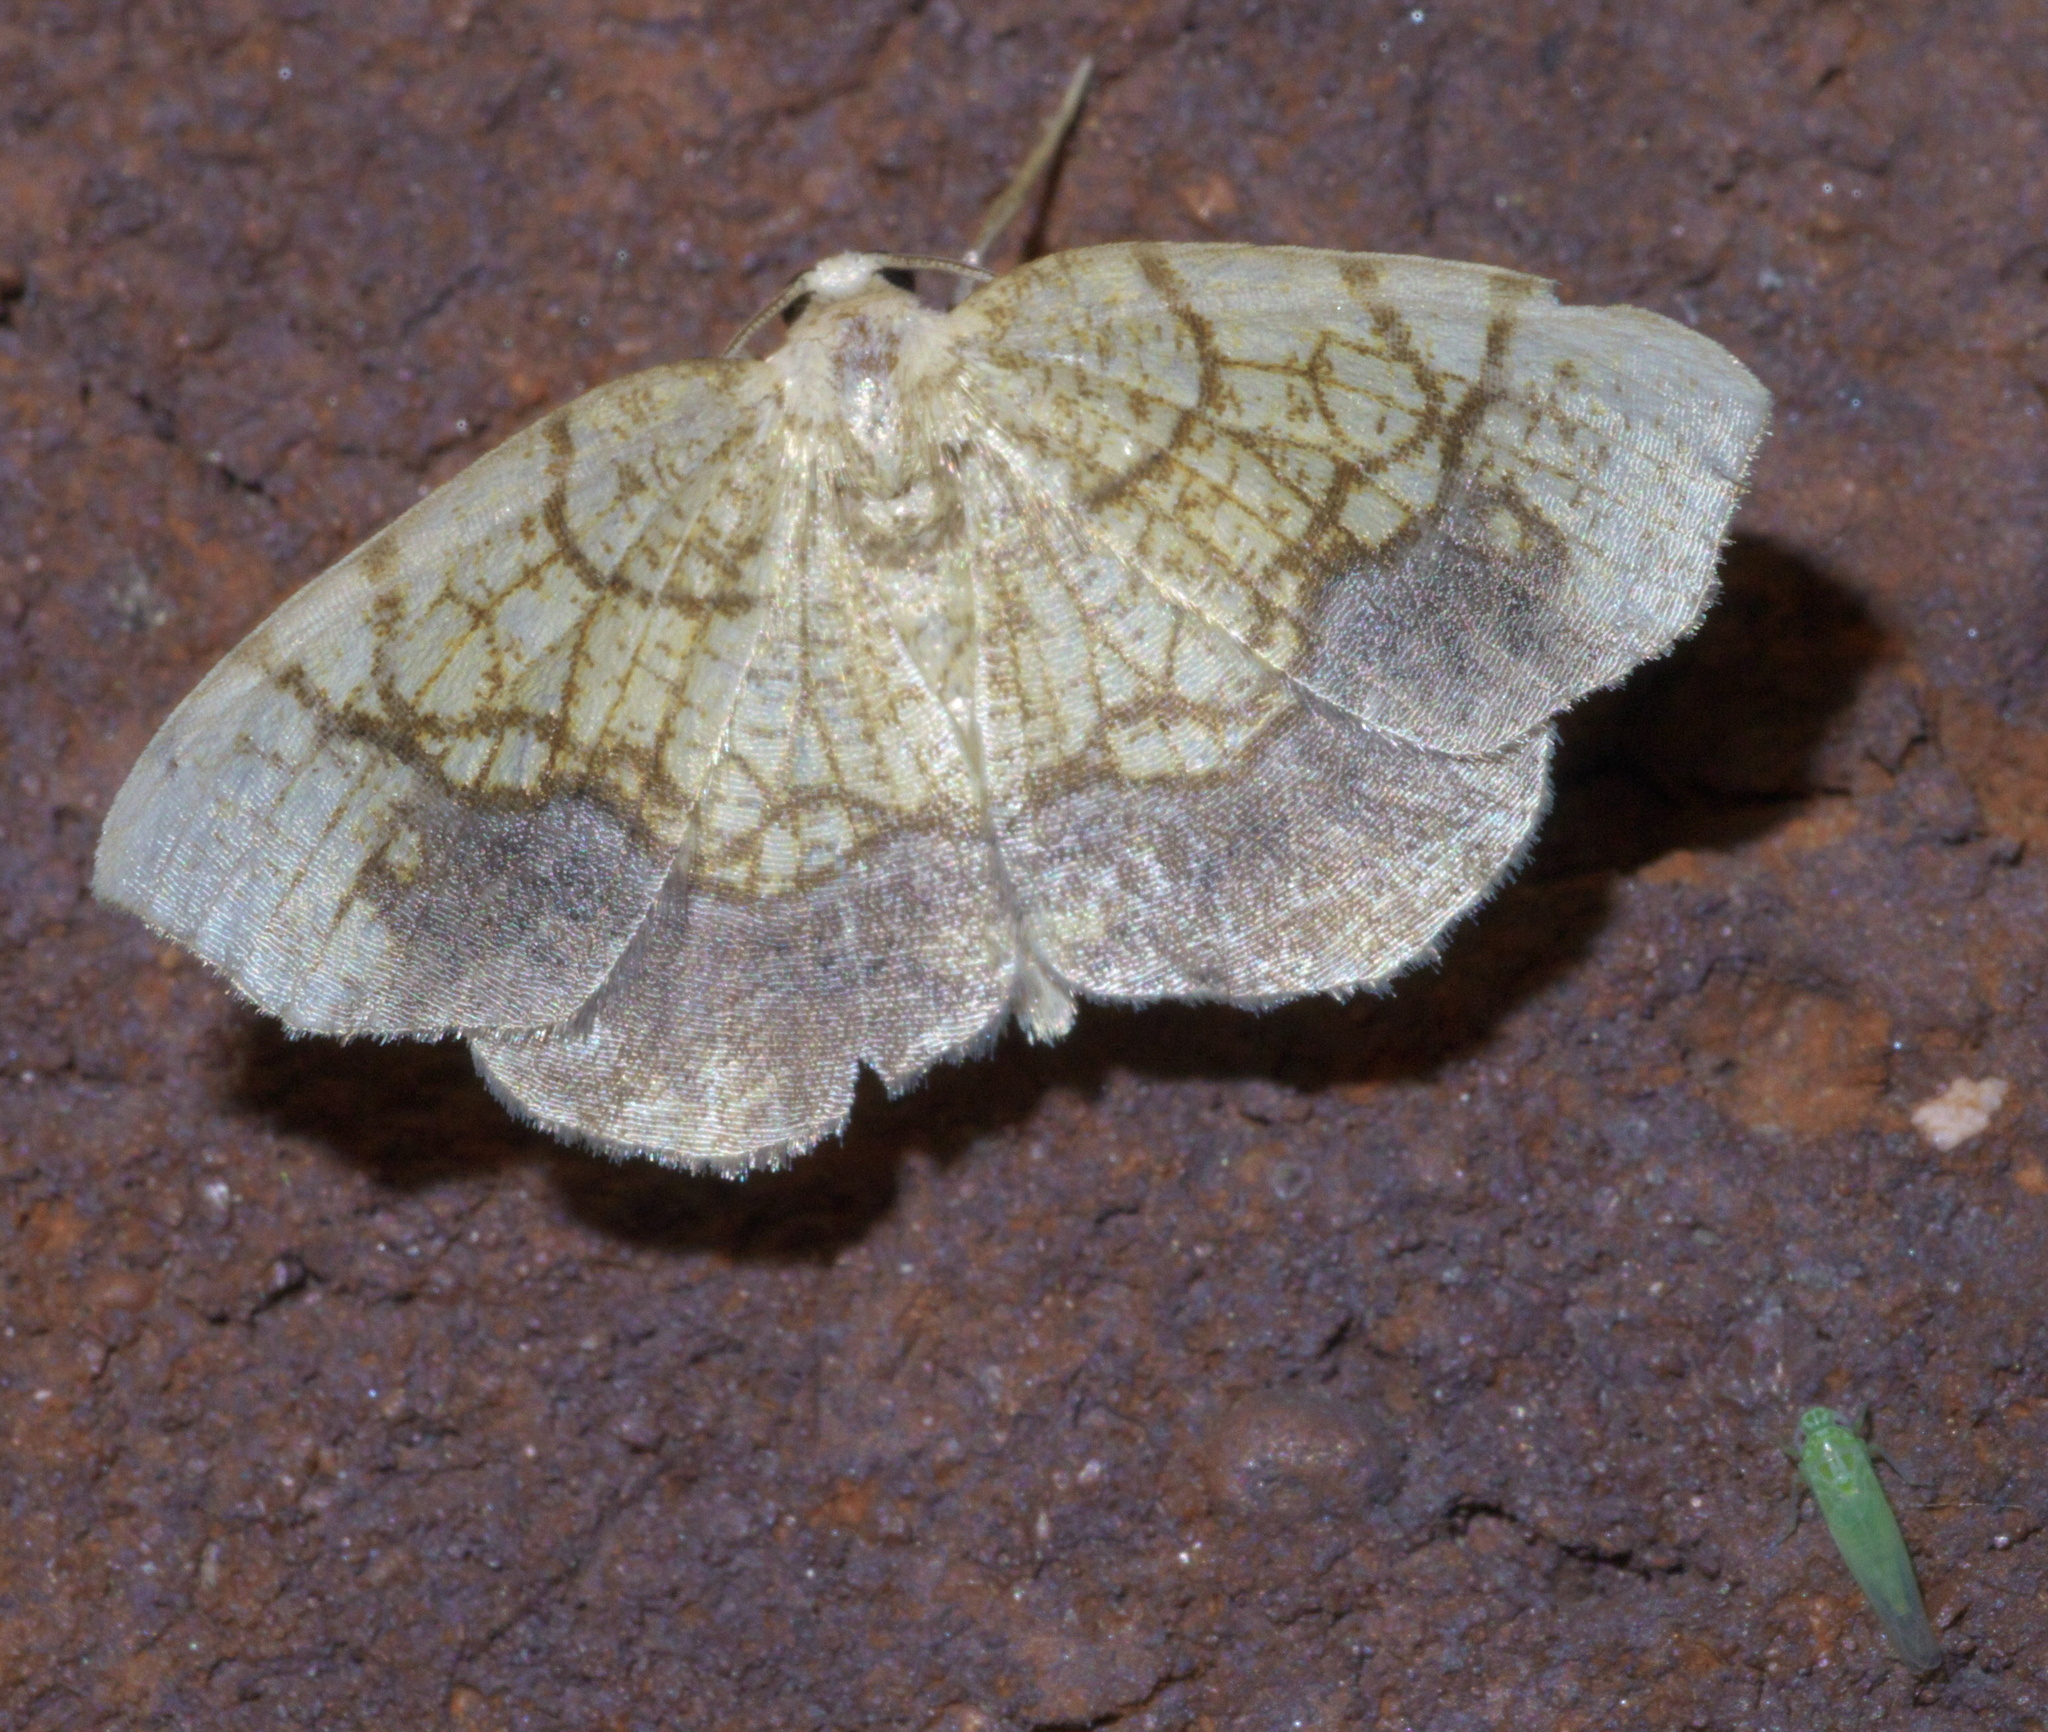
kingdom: Animalia
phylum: Arthropoda
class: Insecta
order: Lepidoptera
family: Geometridae
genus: Nematocampa
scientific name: Nematocampa resistaria
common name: Horned spanworm moth
